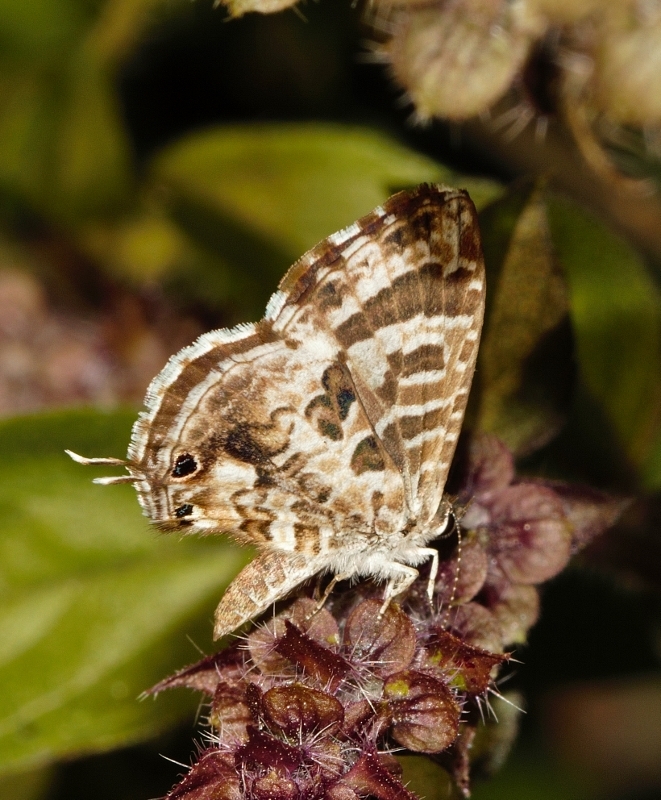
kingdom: Animalia
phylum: Arthropoda
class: Insecta
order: Lepidoptera
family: Lycaenidae
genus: Cacyreus
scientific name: Cacyreus lingeus
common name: Bush bronze
